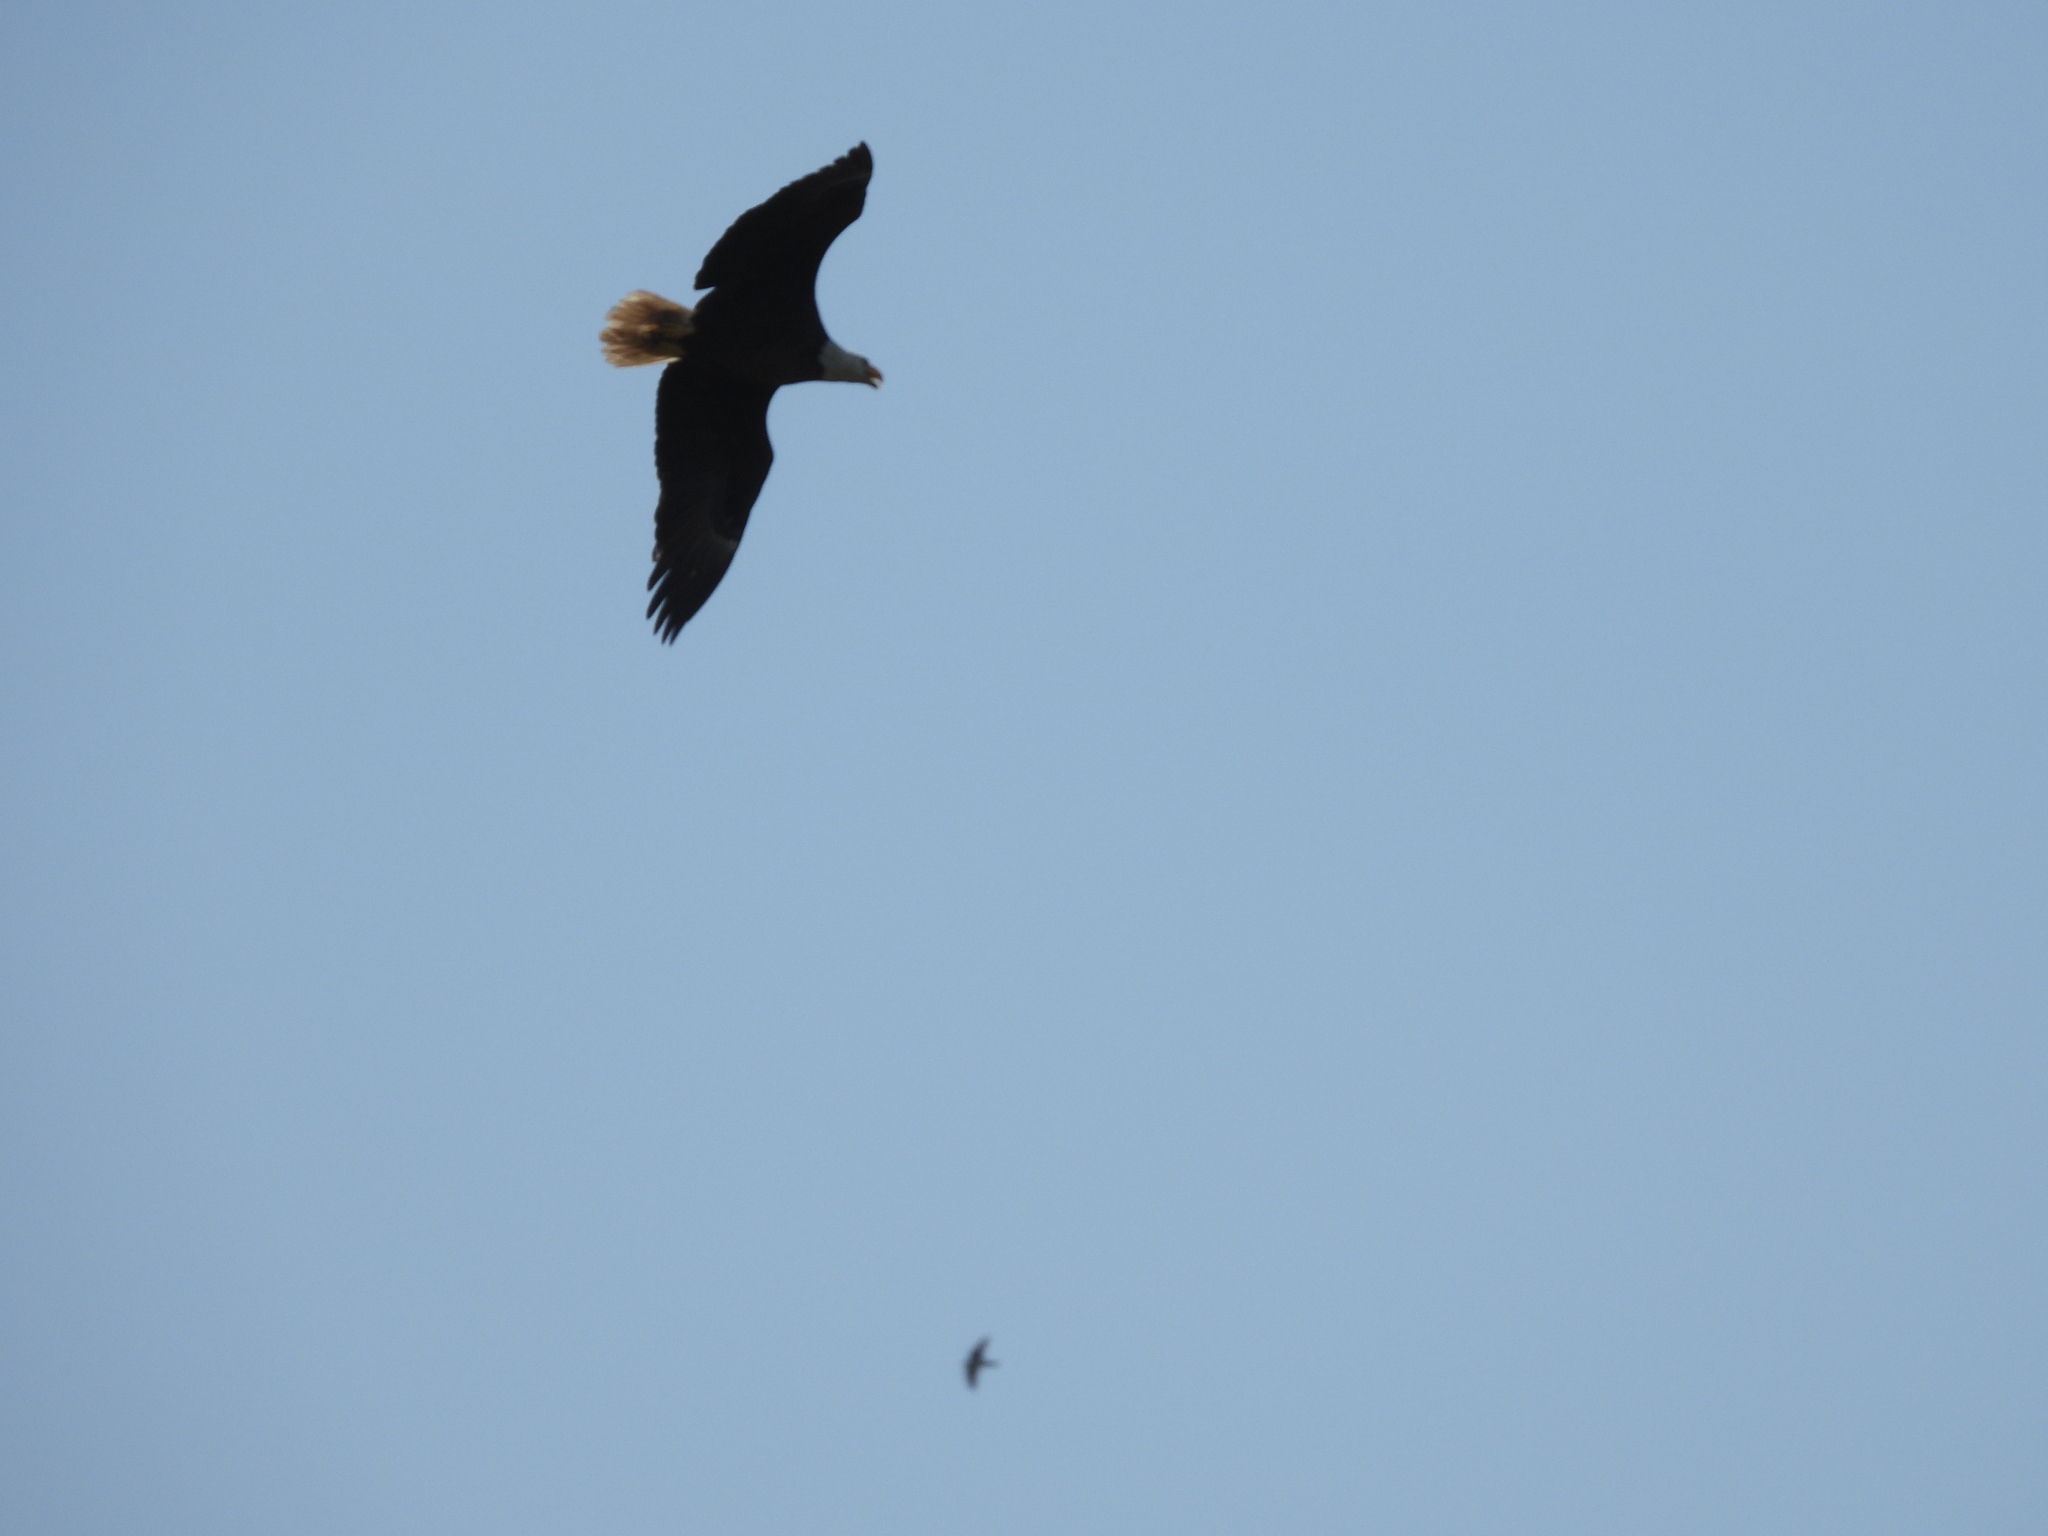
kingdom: Animalia
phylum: Chordata
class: Aves
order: Accipitriformes
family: Accipitridae
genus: Haliaeetus
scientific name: Haliaeetus leucocephalus
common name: Bald eagle
